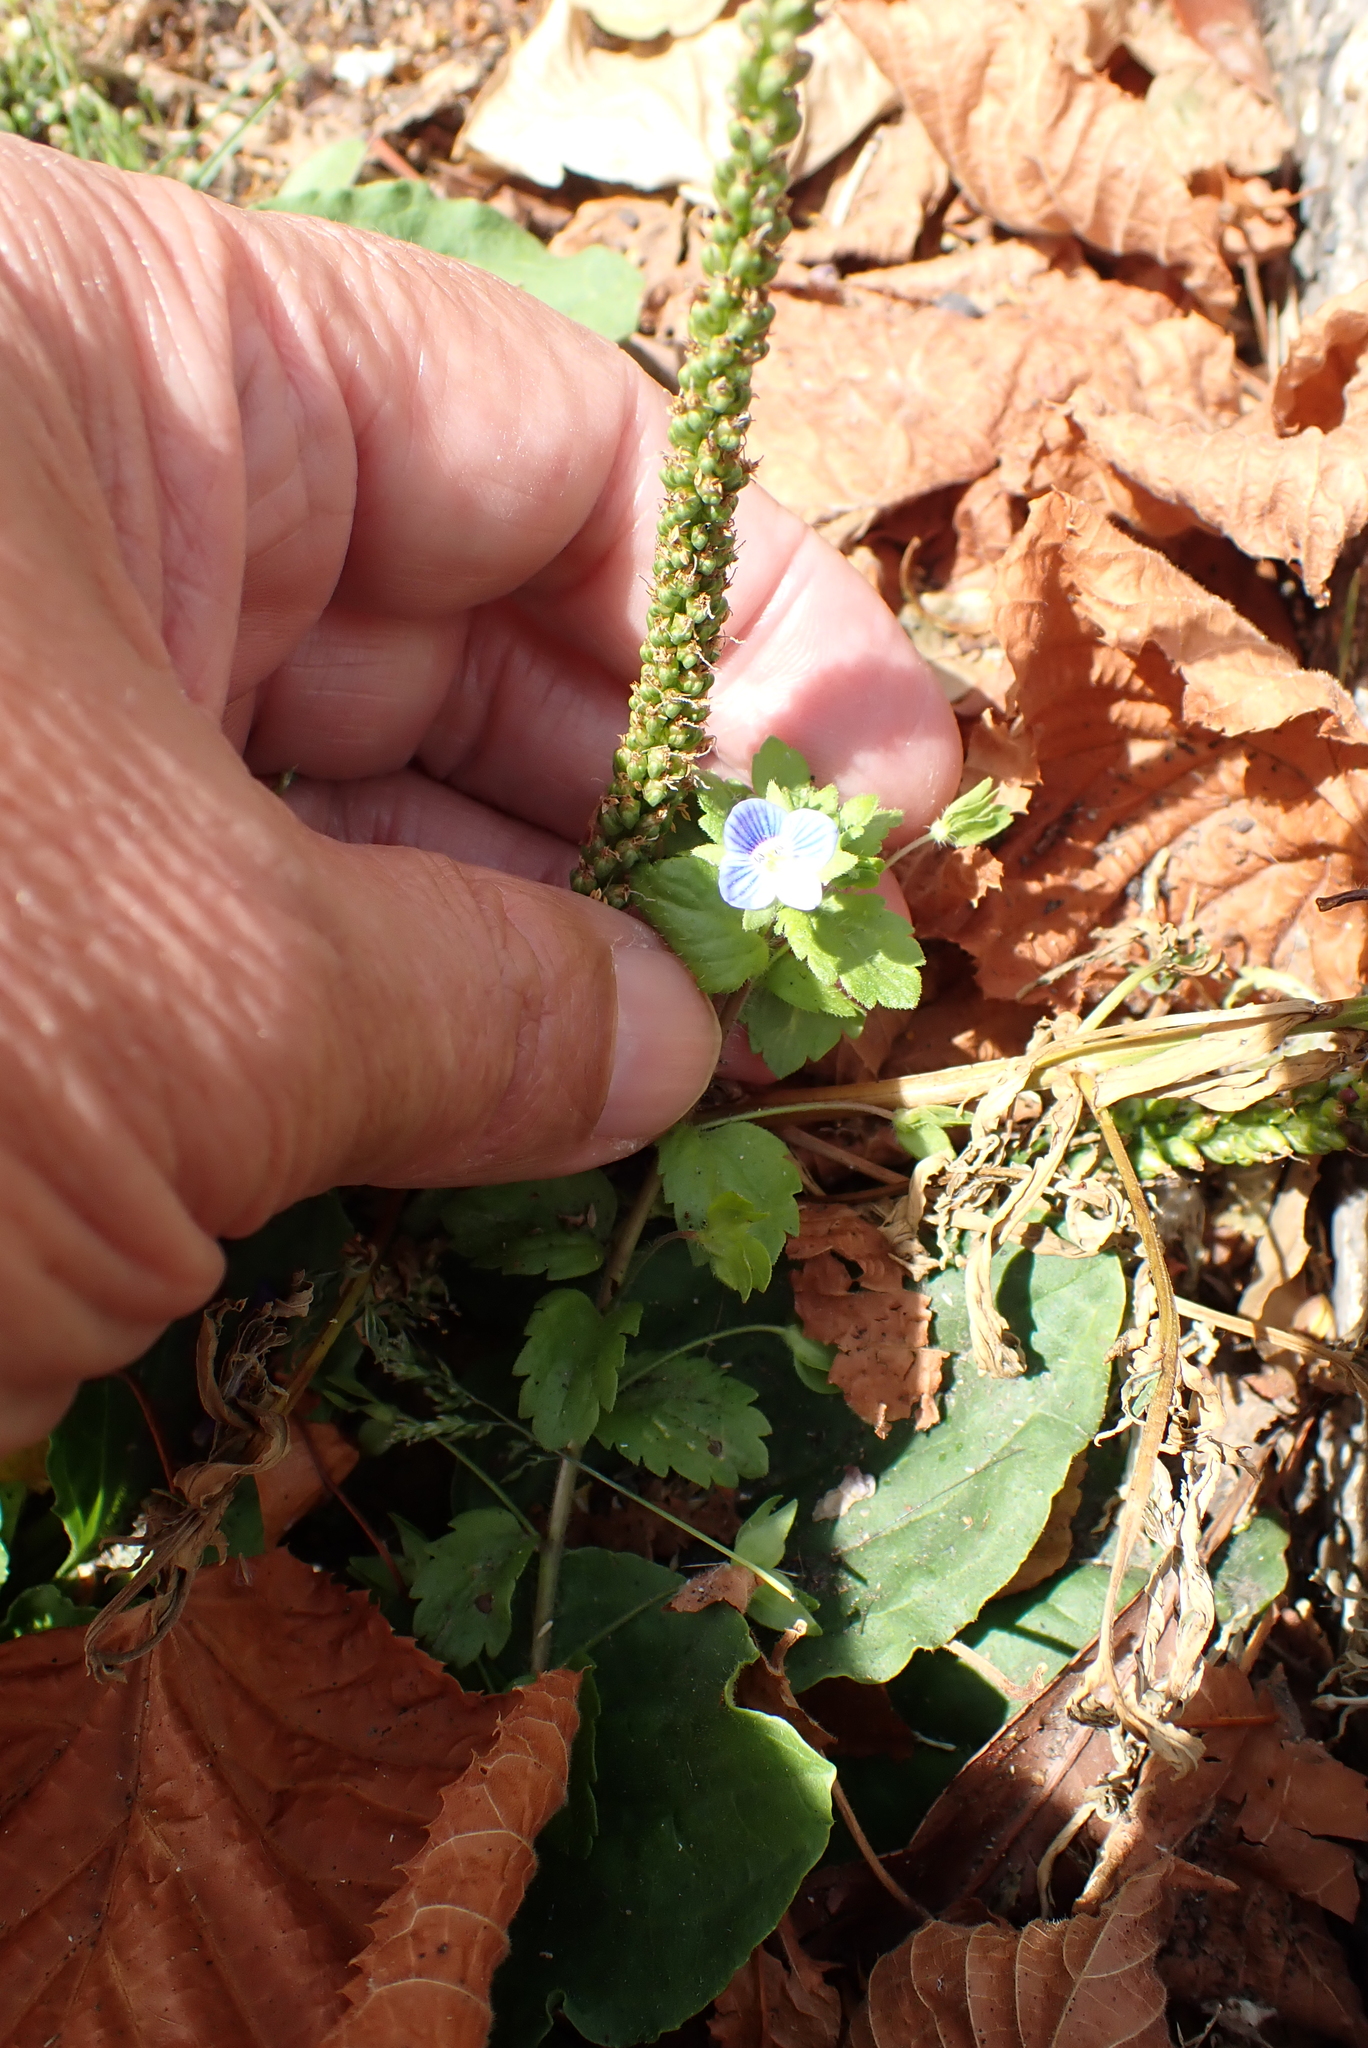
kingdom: Plantae
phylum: Tracheophyta
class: Magnoliopsida
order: Lamiales
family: Plantaginaceae
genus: Veronica
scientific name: Veronica persica
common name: Common field-speedwell
